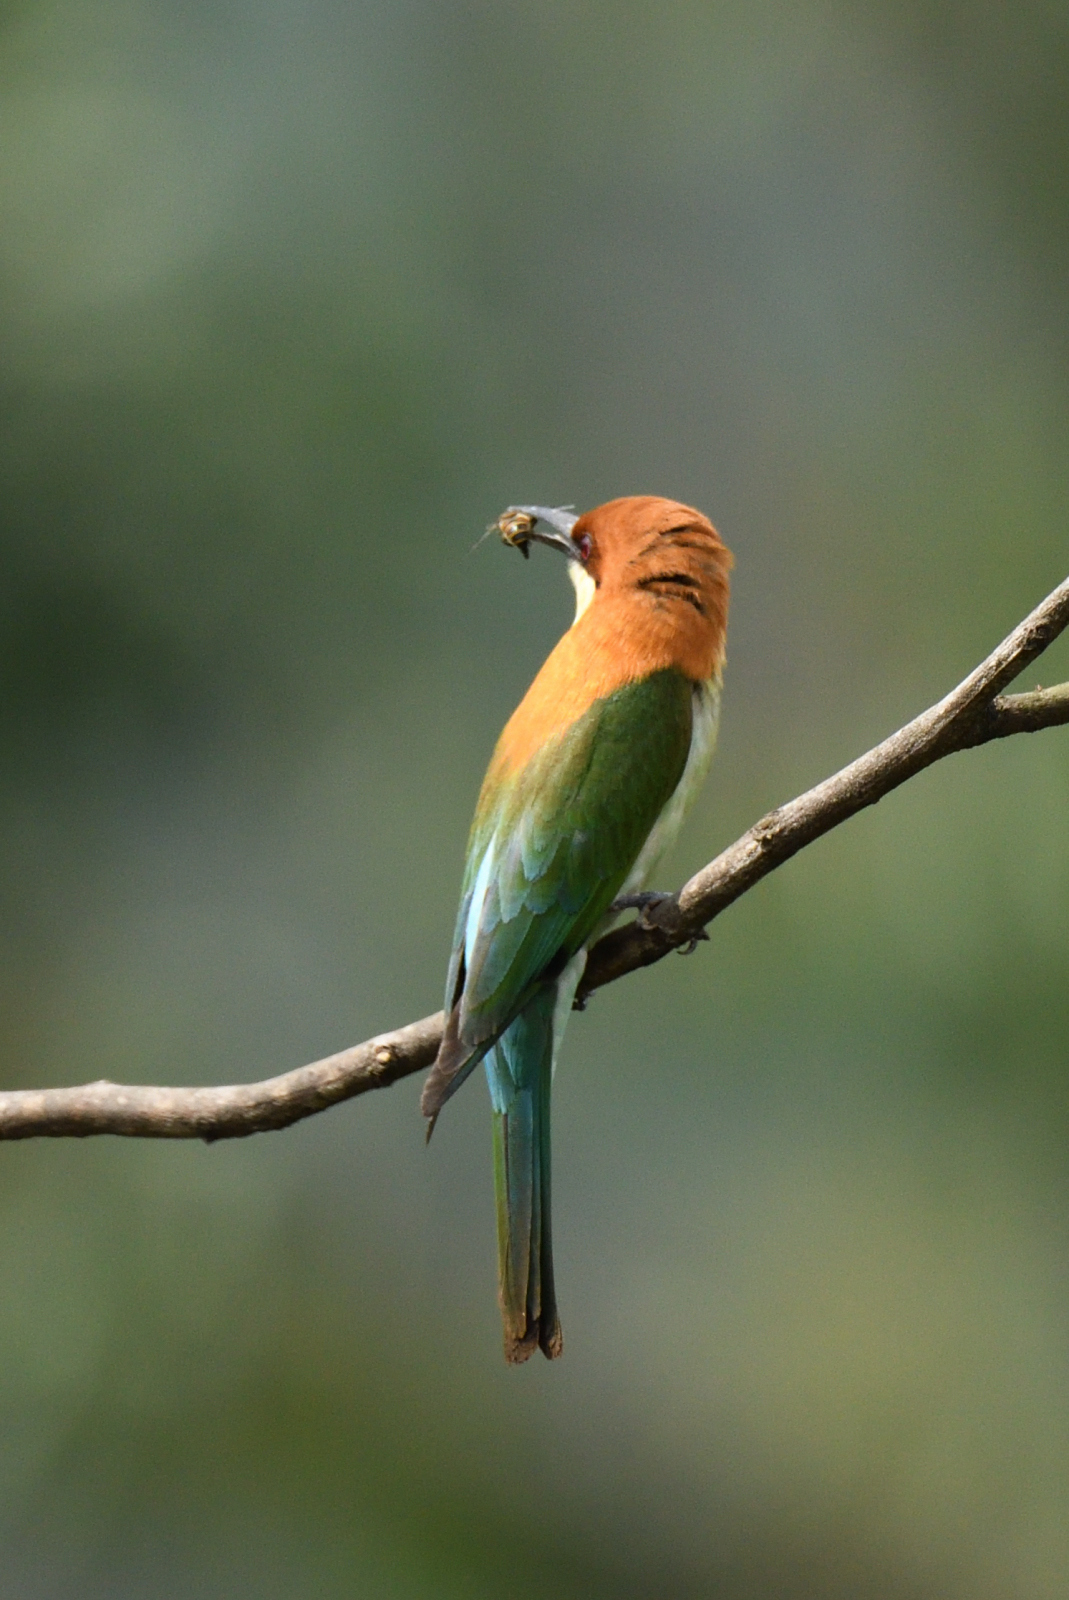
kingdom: Animalia
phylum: Chordata
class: Aves
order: Coraciiformes
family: Meropidae
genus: Merops
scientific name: Merops leschenaulti
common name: Chestnut-headed bee-eater
